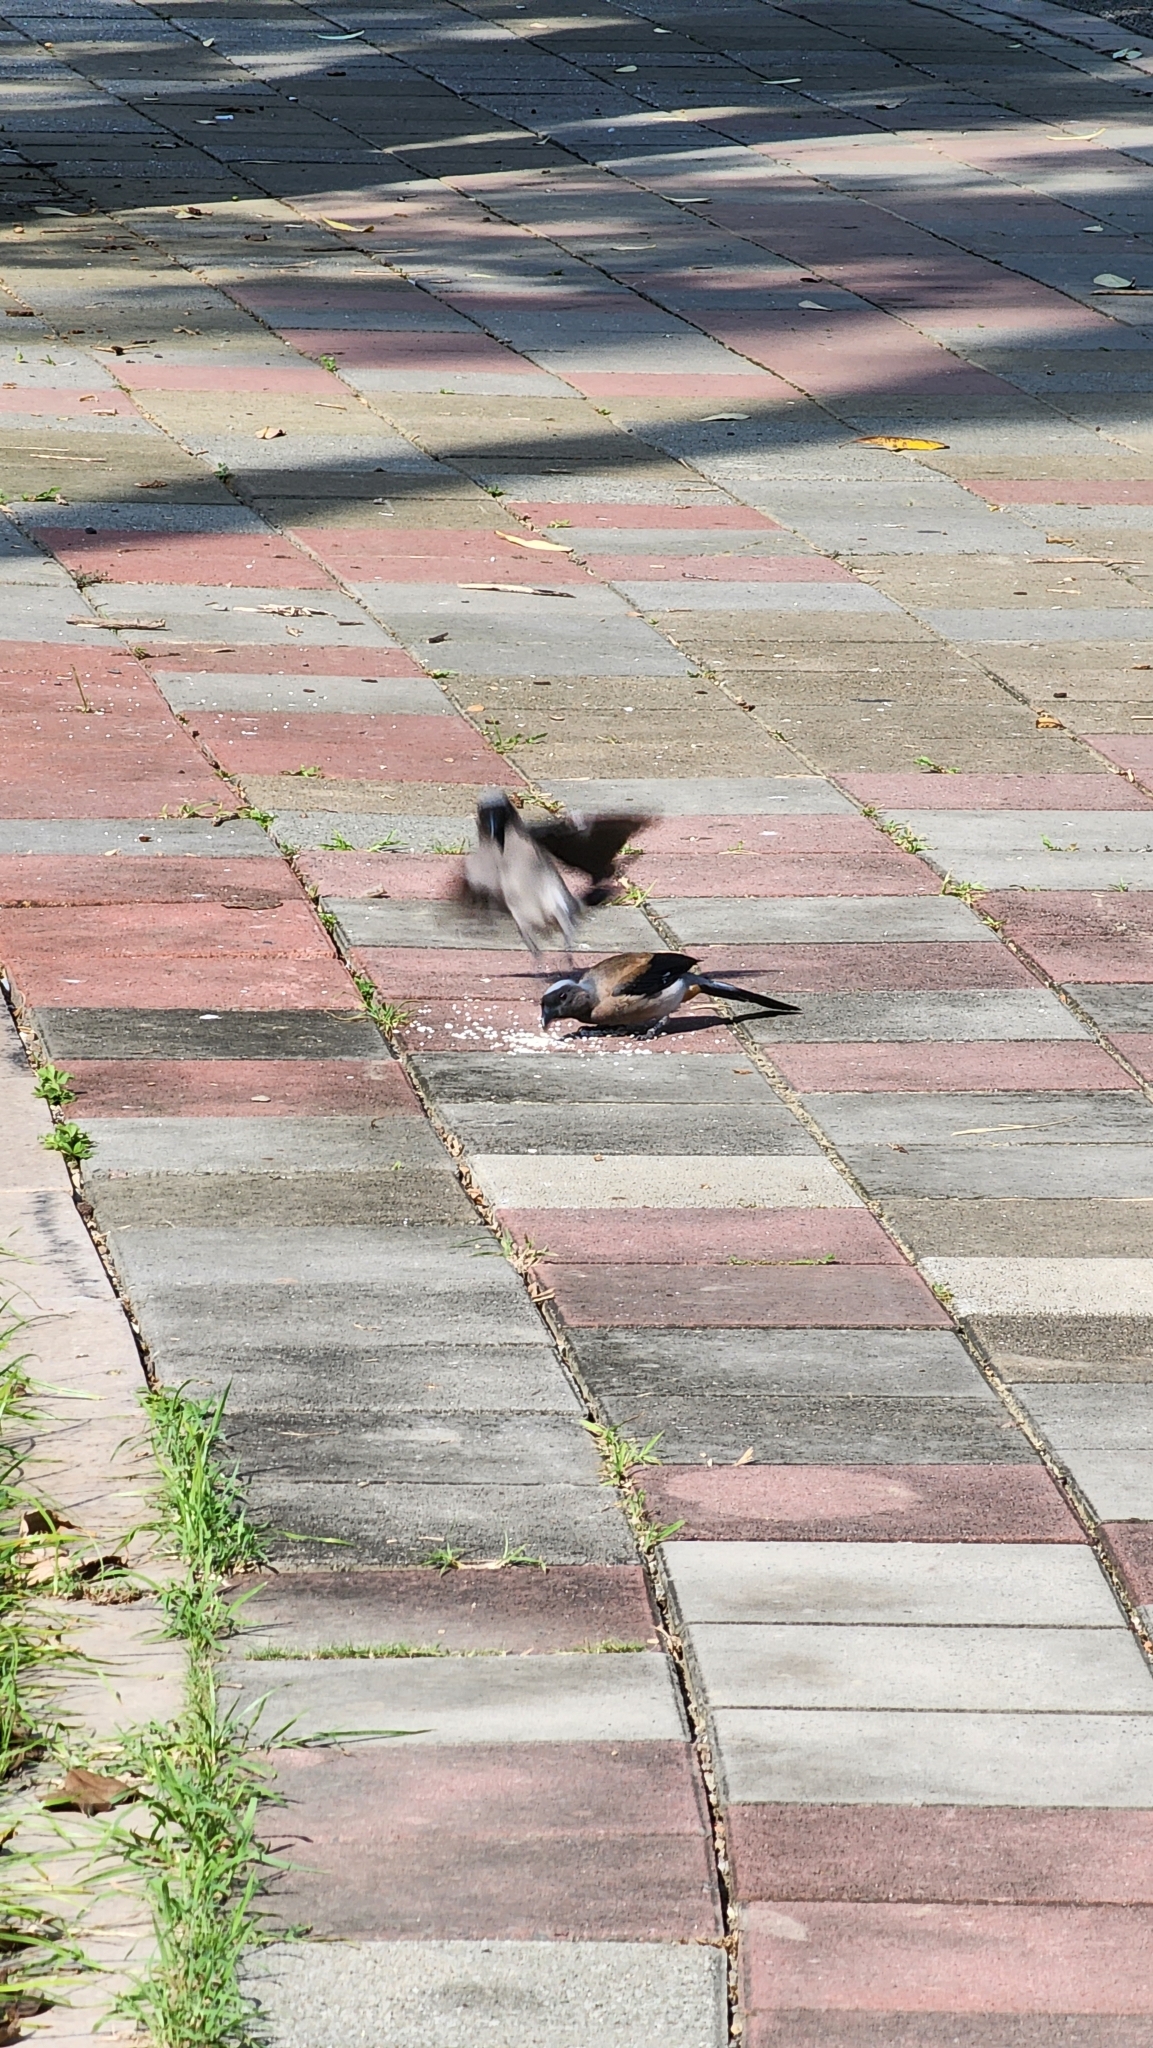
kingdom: Animalia
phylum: Chordata
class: Aves
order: Passeriformes
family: Corvidae
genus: Dendrocitta
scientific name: Dendrocitta formosae
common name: Grey treepie
